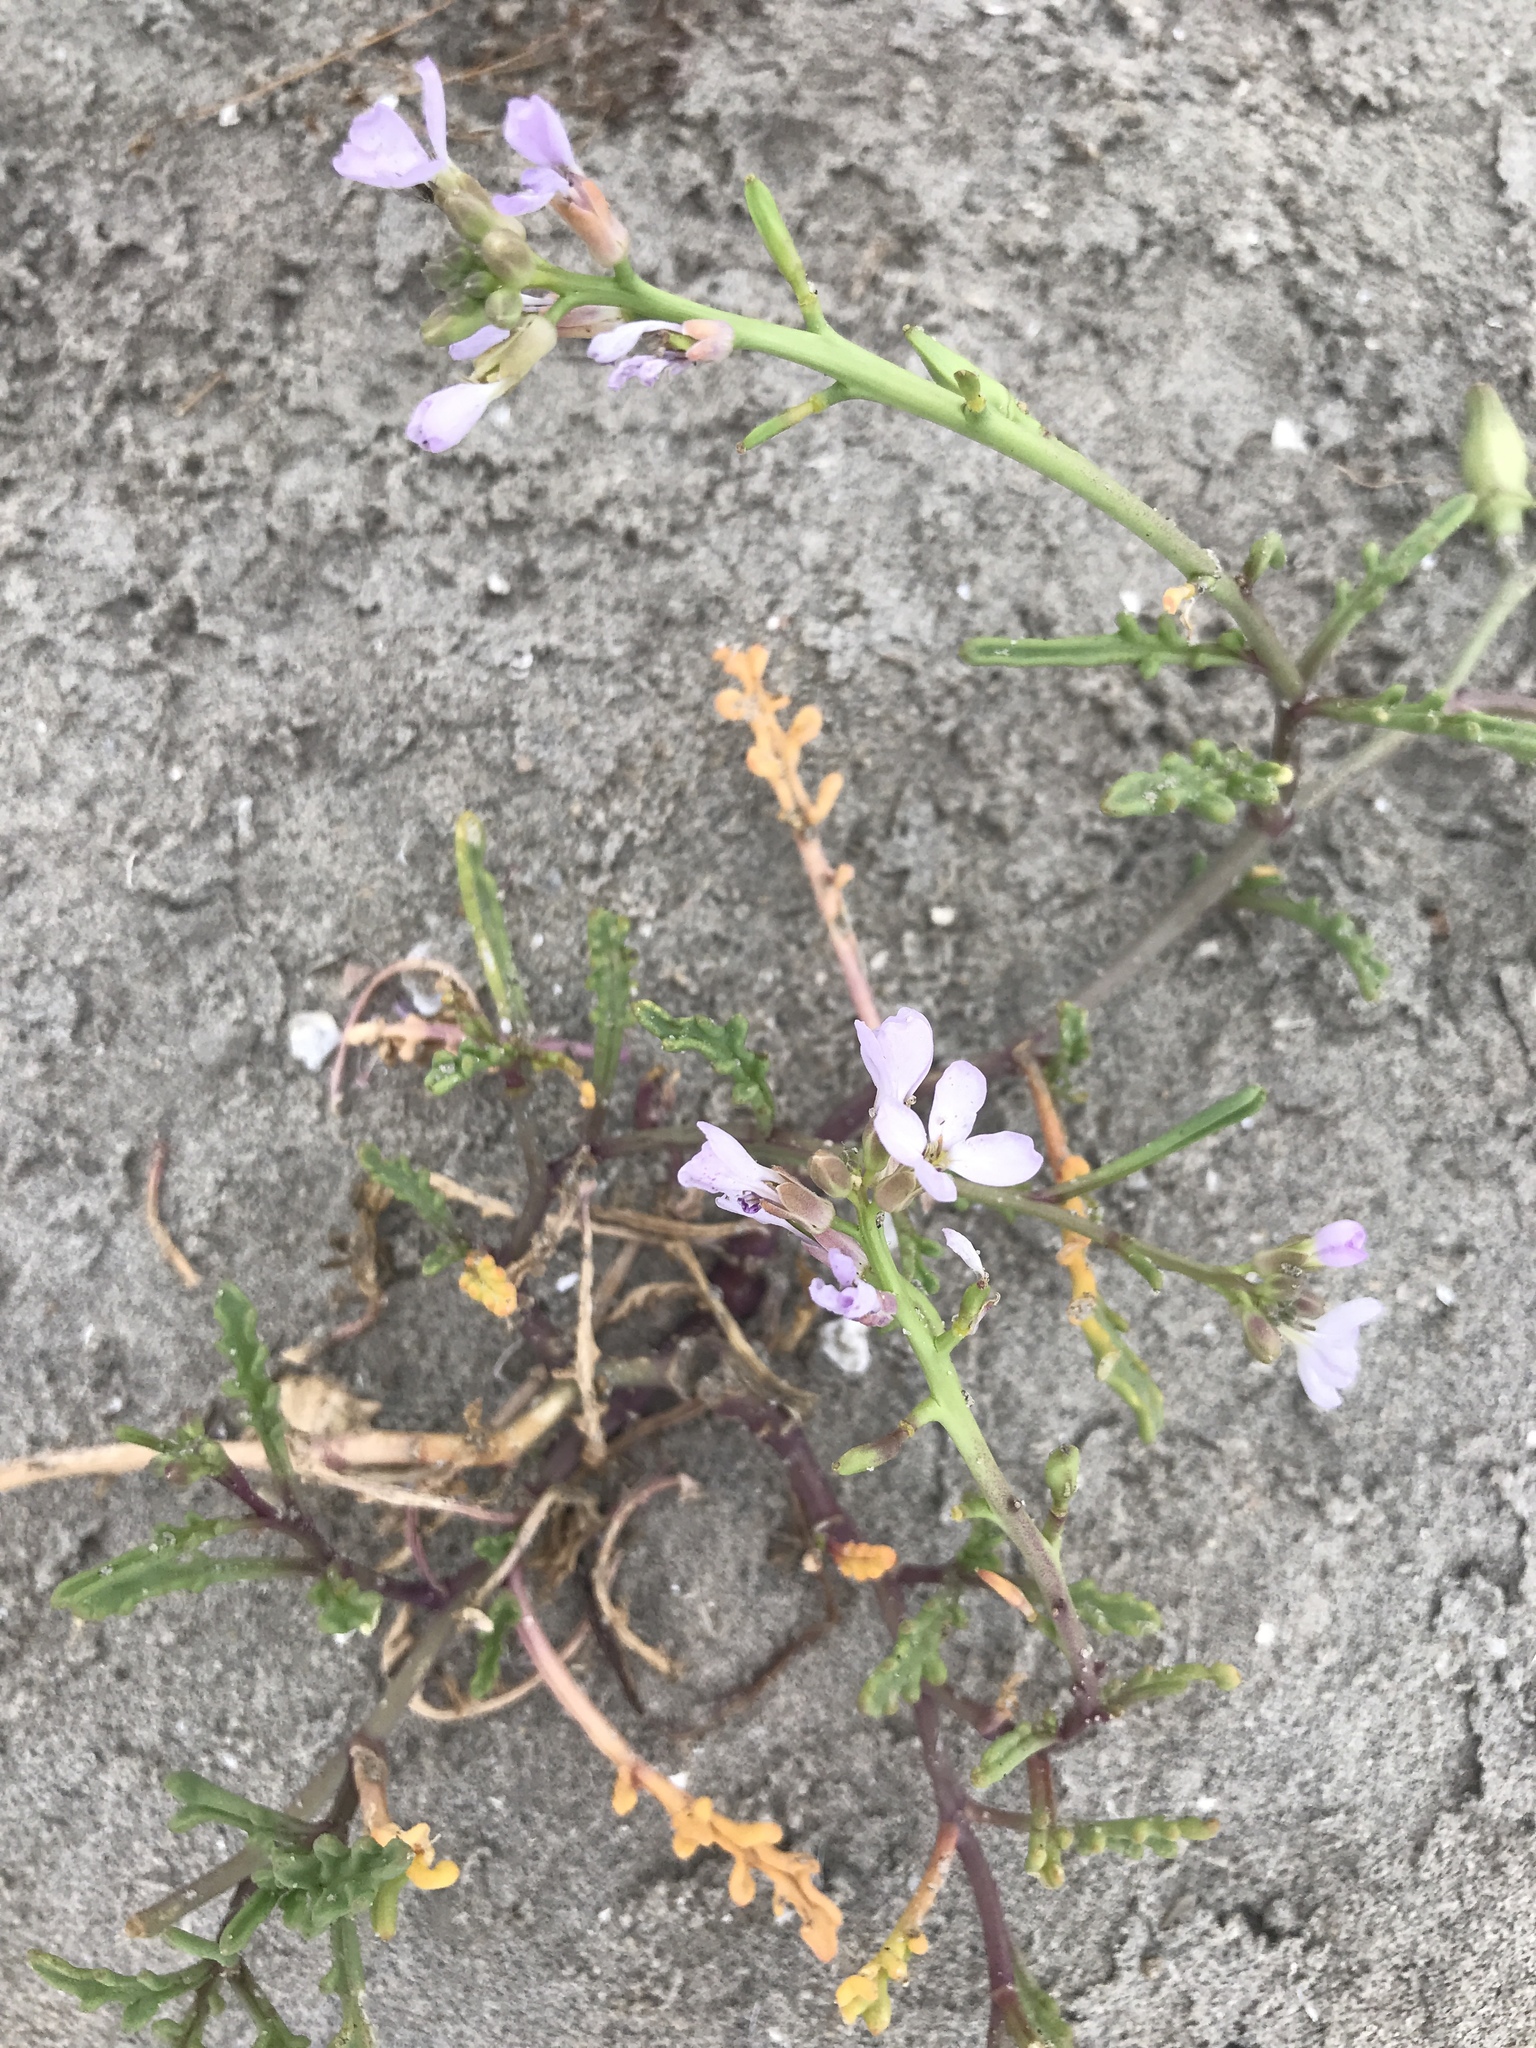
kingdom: Plantae
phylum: Tracheophyta
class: Magnoliopsida
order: Brassicales
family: Brassicaceae
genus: Cakile
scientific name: Cakile maritima
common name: Sea rocket
